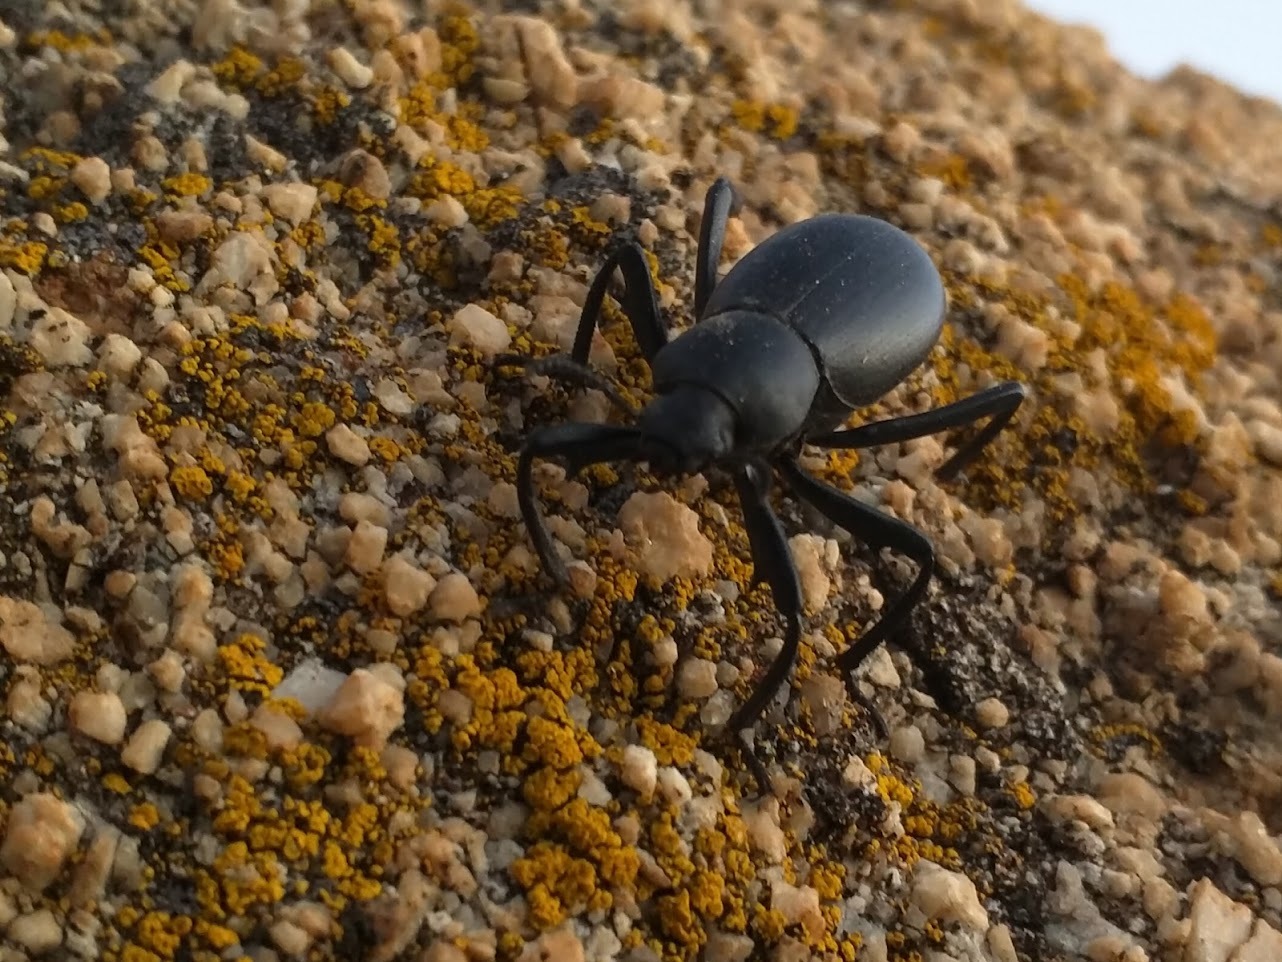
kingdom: Animalia
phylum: Arthropoda
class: Insecta
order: Coleoptera
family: Tenebrionidae
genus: Eleodes
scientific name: Eleodes armata
